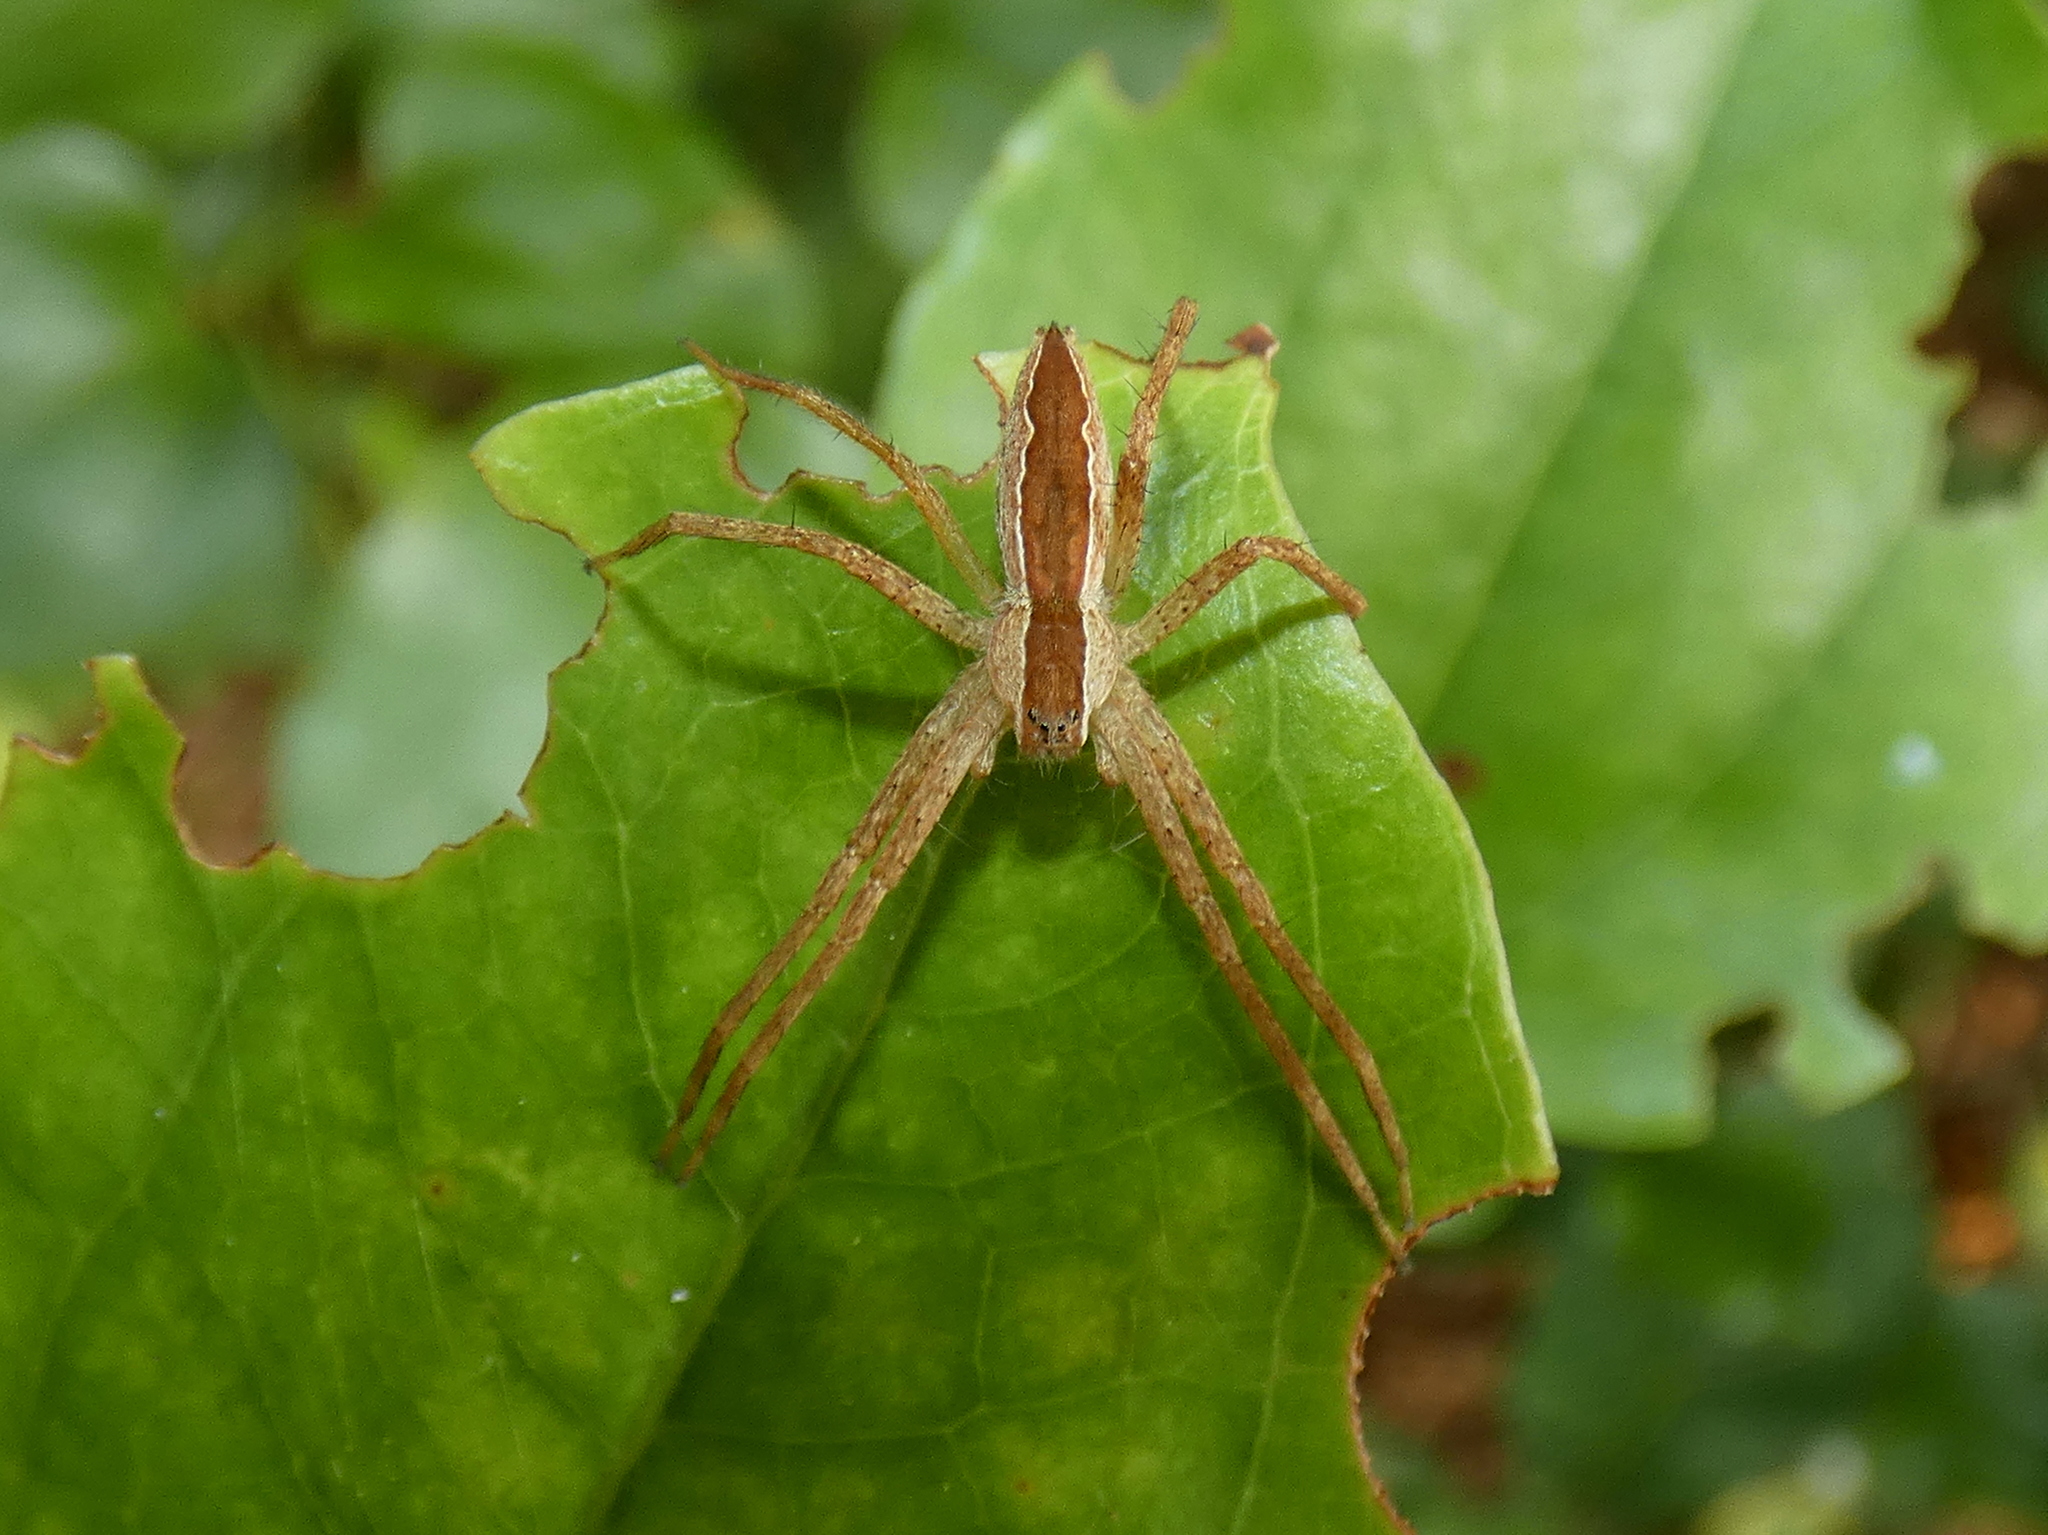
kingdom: Animalia
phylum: Arthropoda
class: Arachnida
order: Araneae
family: Pisauridae
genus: Pisaurina
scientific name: Pisaurina mira
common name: American nursery web spider
